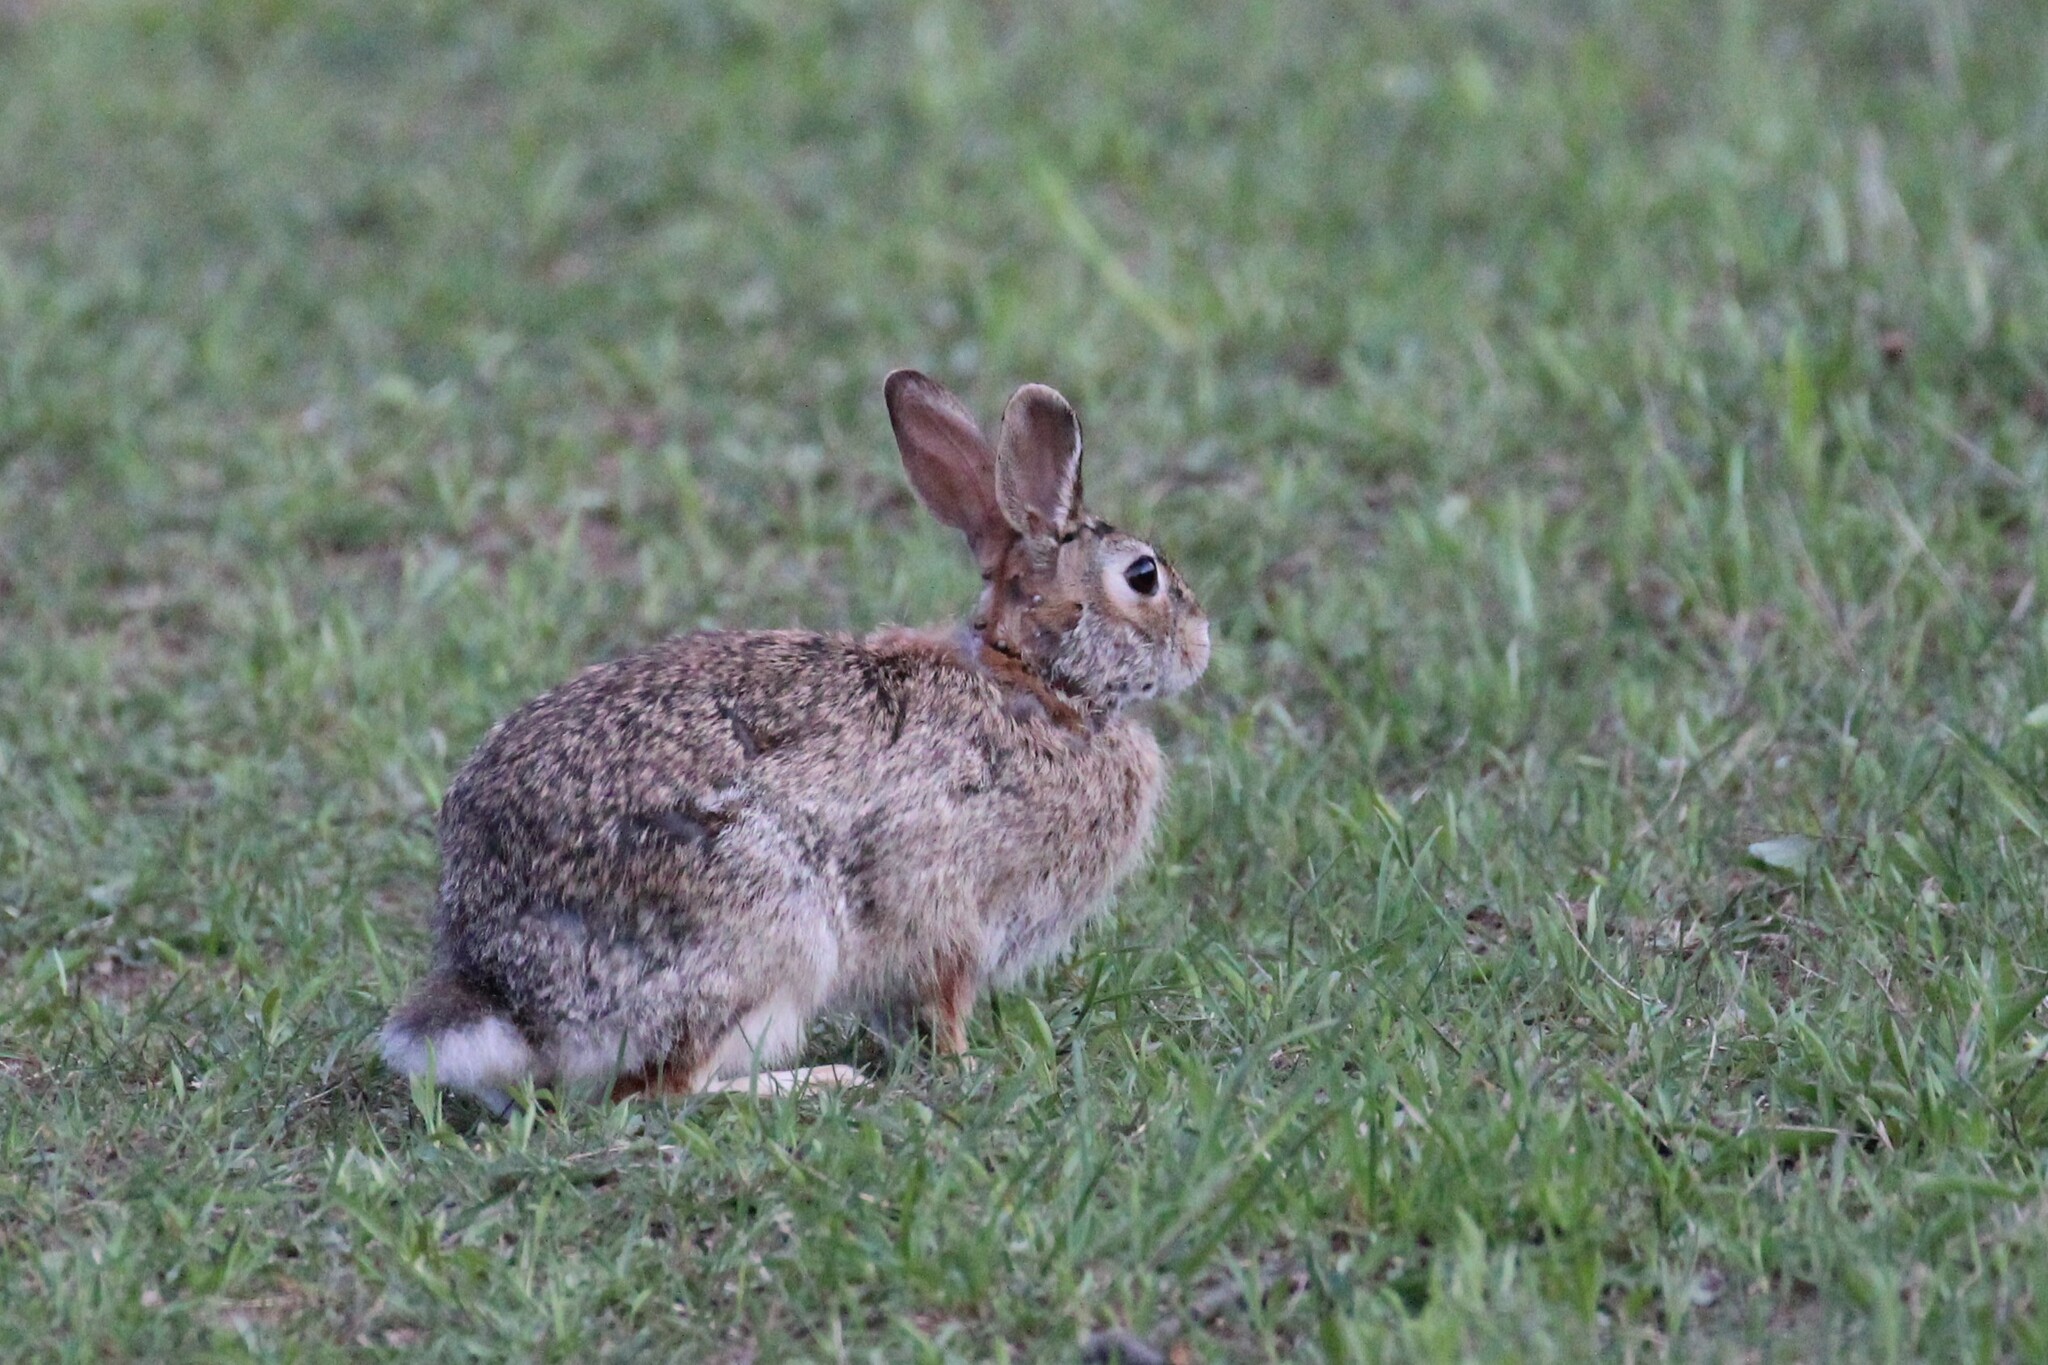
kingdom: Animalia
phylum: Chordata
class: Mammalia
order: Lagomorpha
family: Leporidae
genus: Sylvilagus
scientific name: Sylvilagus floridanus
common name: Eastern cottontail
